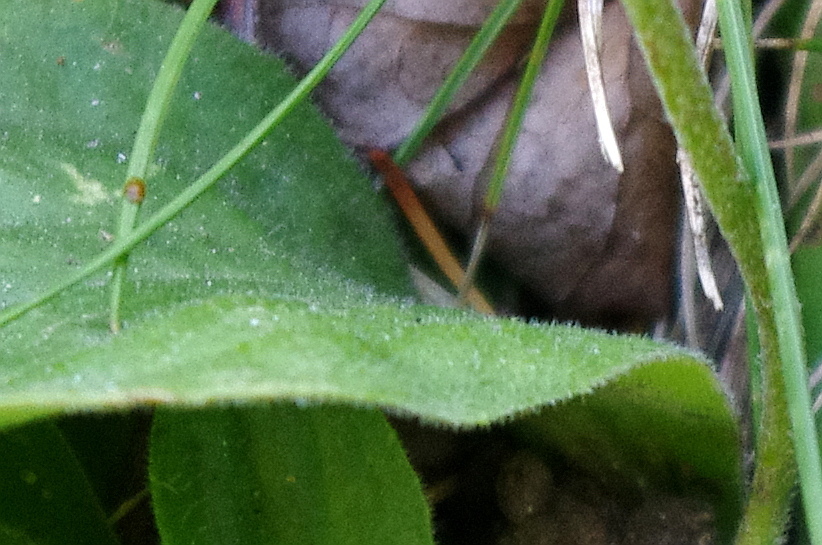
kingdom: Plantae
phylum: Tracheophyta
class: Magnoliopsida
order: Lamiales
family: Plantaginaceae
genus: Plantago
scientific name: Plantago media
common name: Hoary plantain
